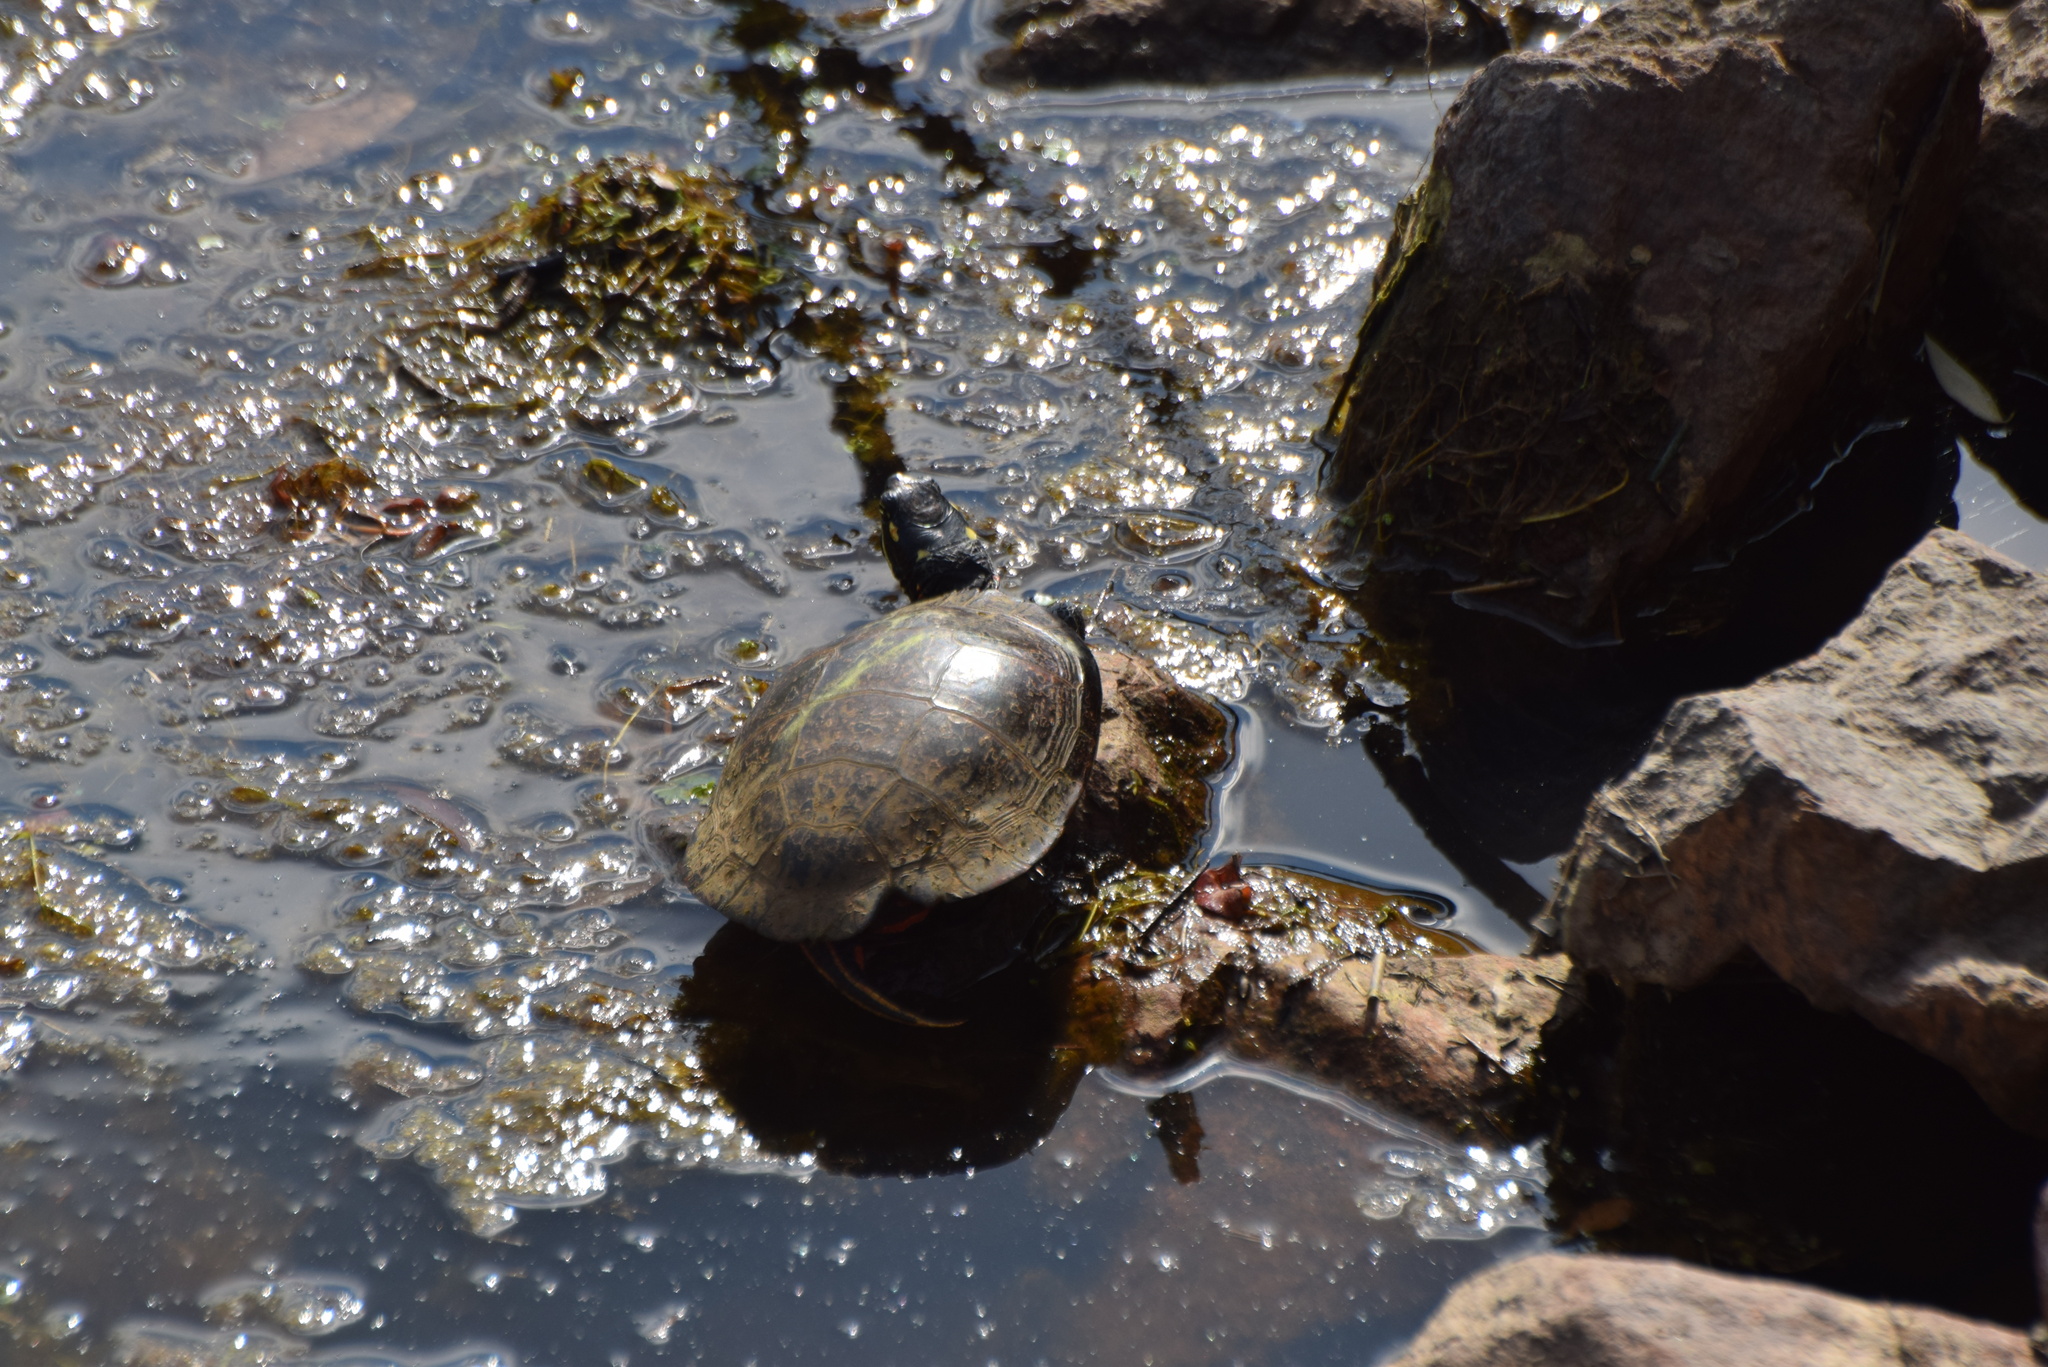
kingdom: Animalia
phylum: Chordata
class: Testudines
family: Emydidae
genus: Chrysemys
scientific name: Chrysemys picta
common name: Painted turtle
